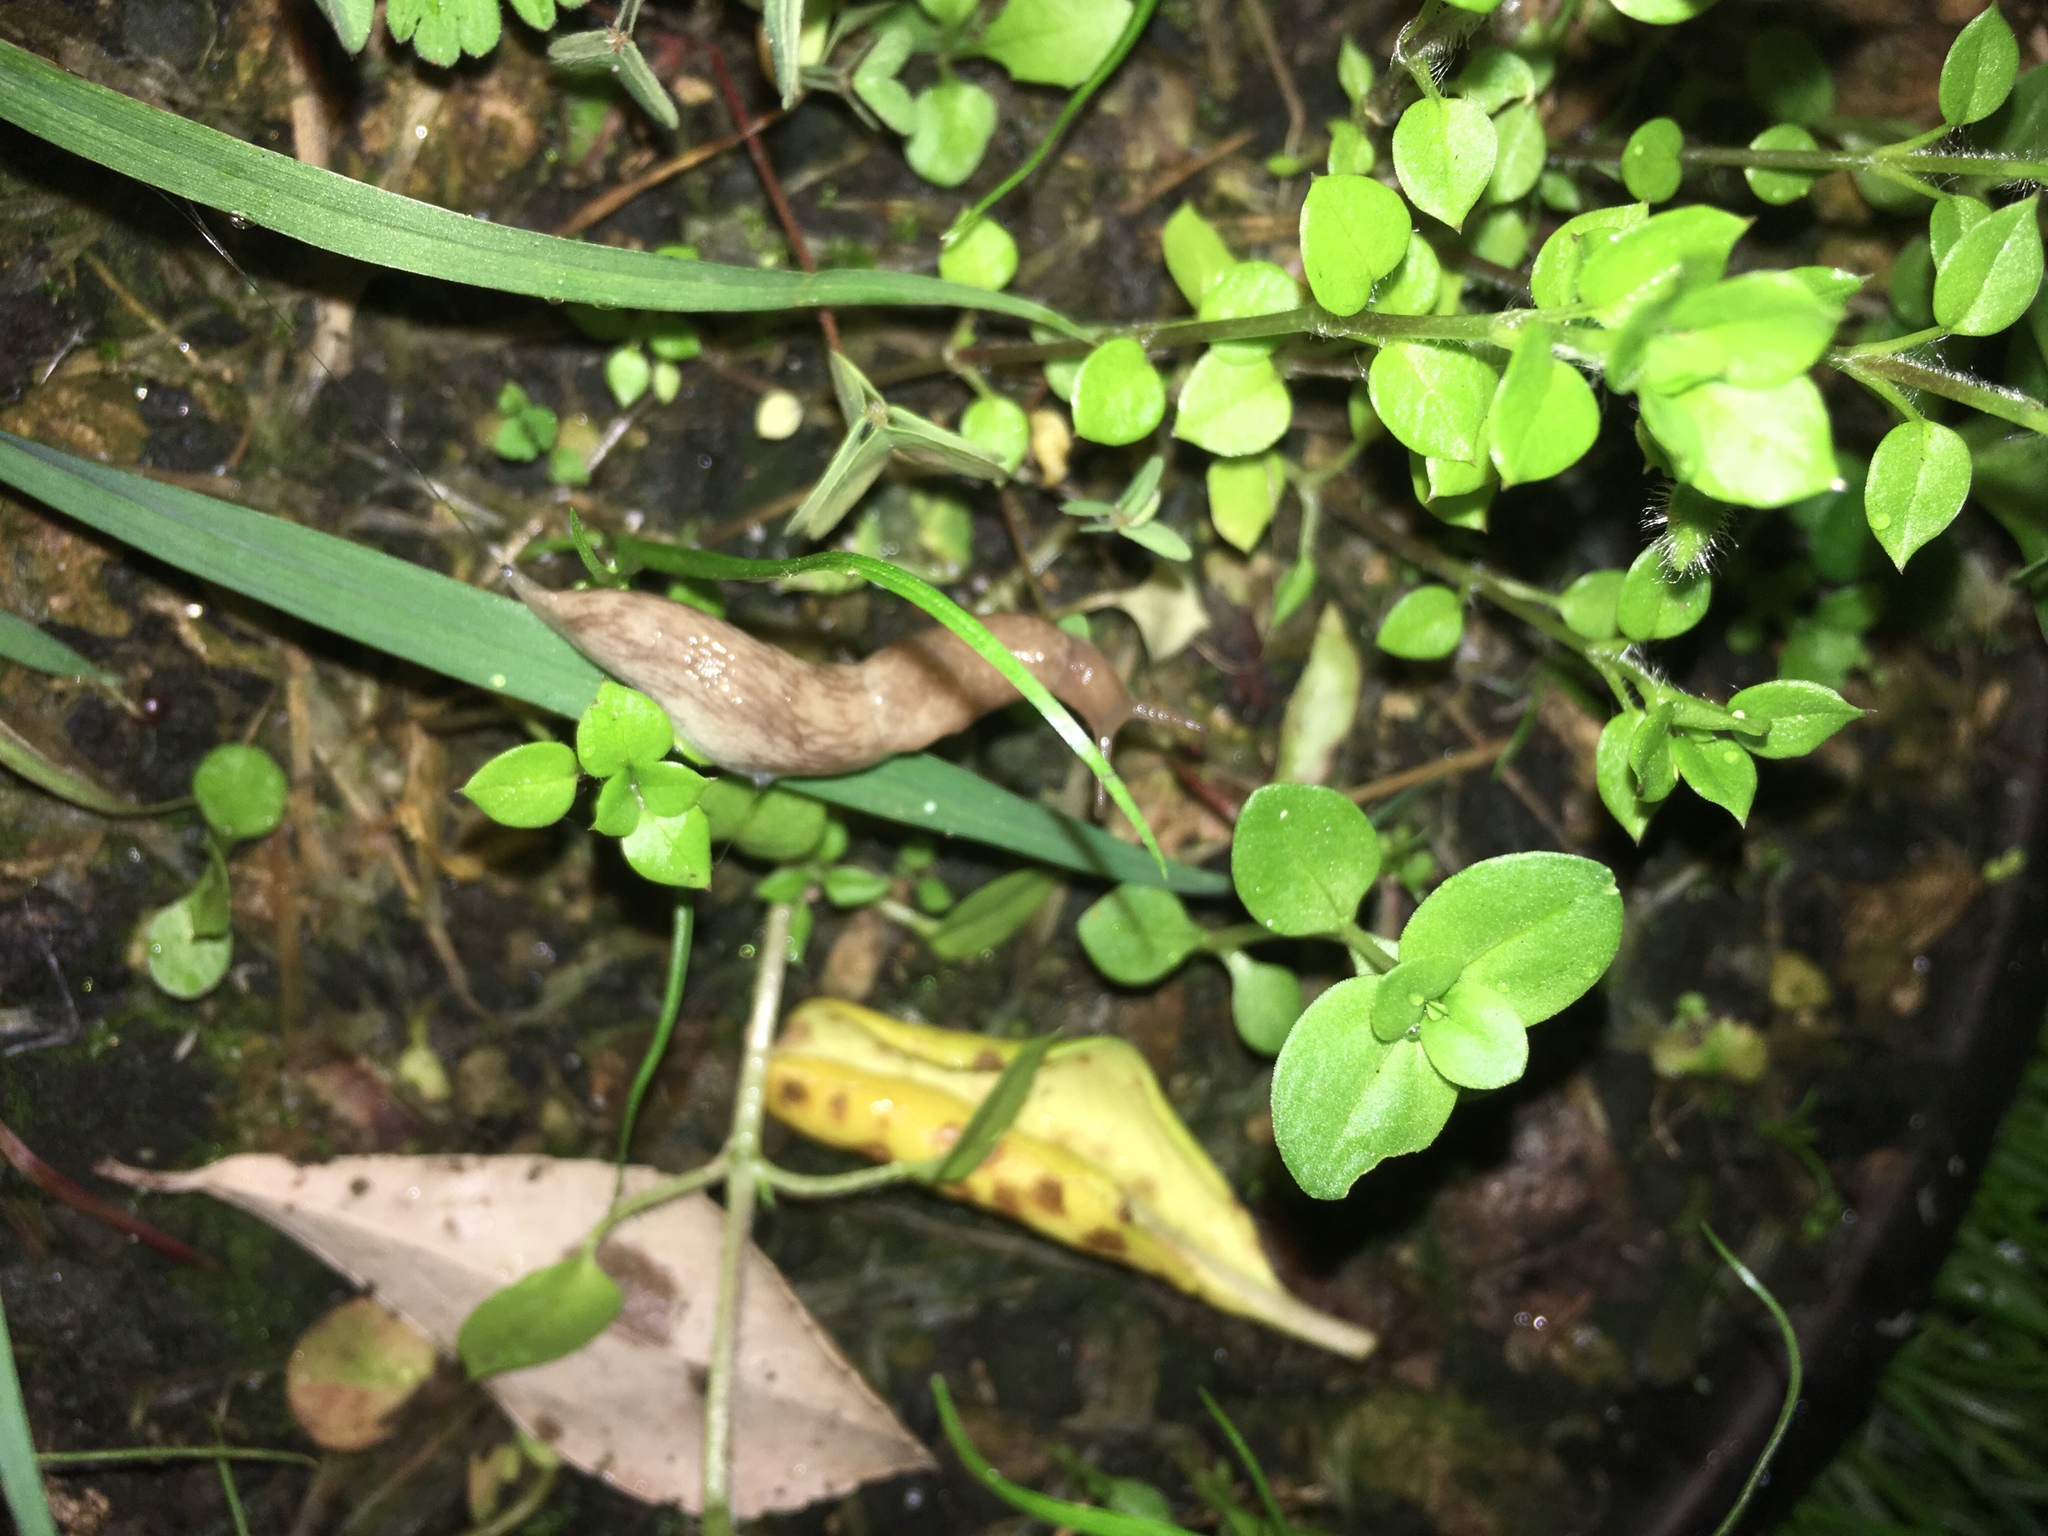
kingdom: Animalia
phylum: Mollusca
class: Gastropoda
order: Stylommatophora
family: Agriolimacidae
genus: Deroceras
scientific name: Deroceras reticulatum
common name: Gray field slug
